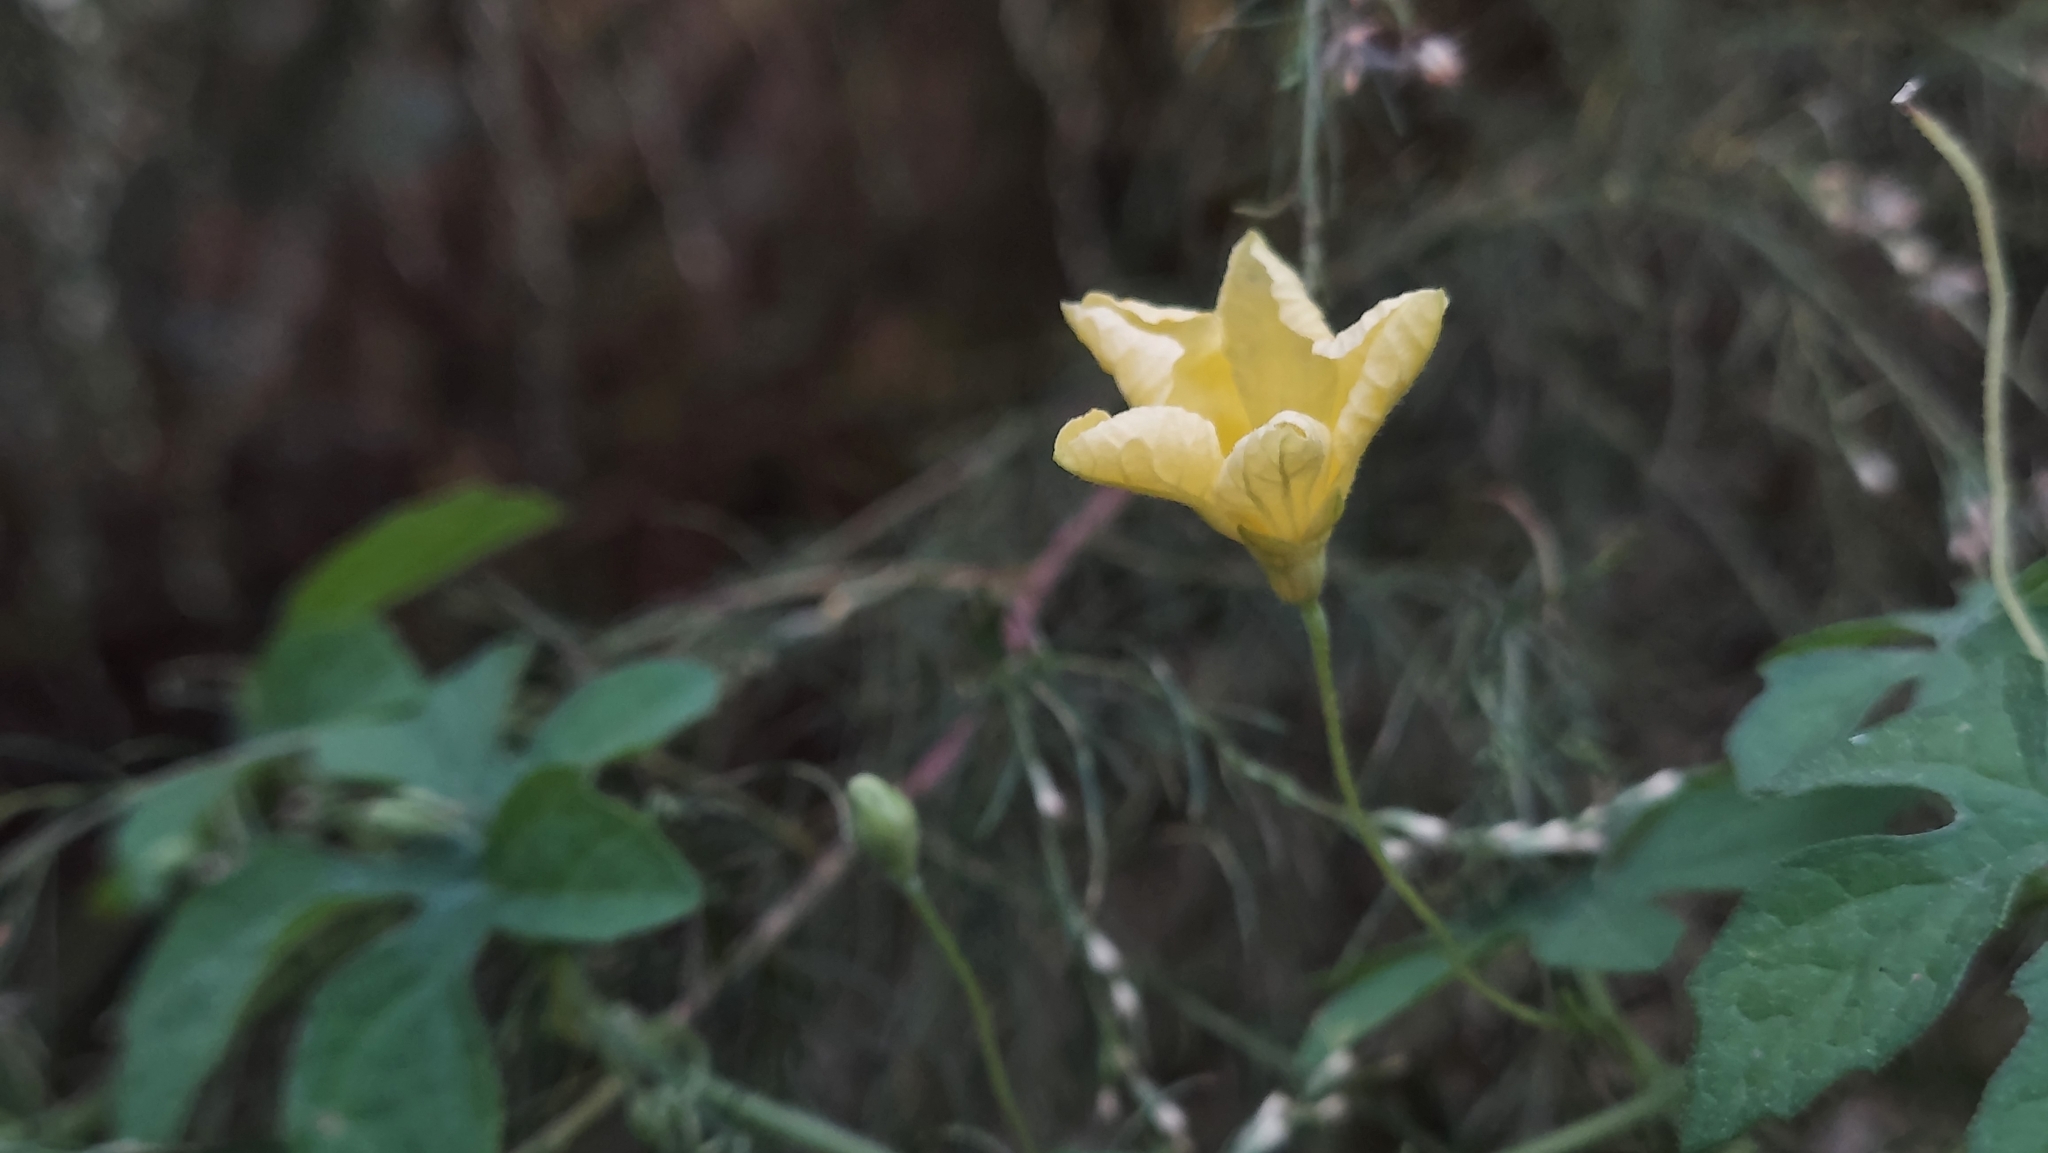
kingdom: Plantae
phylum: Tracheophyta
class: Magnoliopsida
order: Cucurbitales
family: Cucurbitaceae
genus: Momordica
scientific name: Momordica charantia
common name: Balsampear
